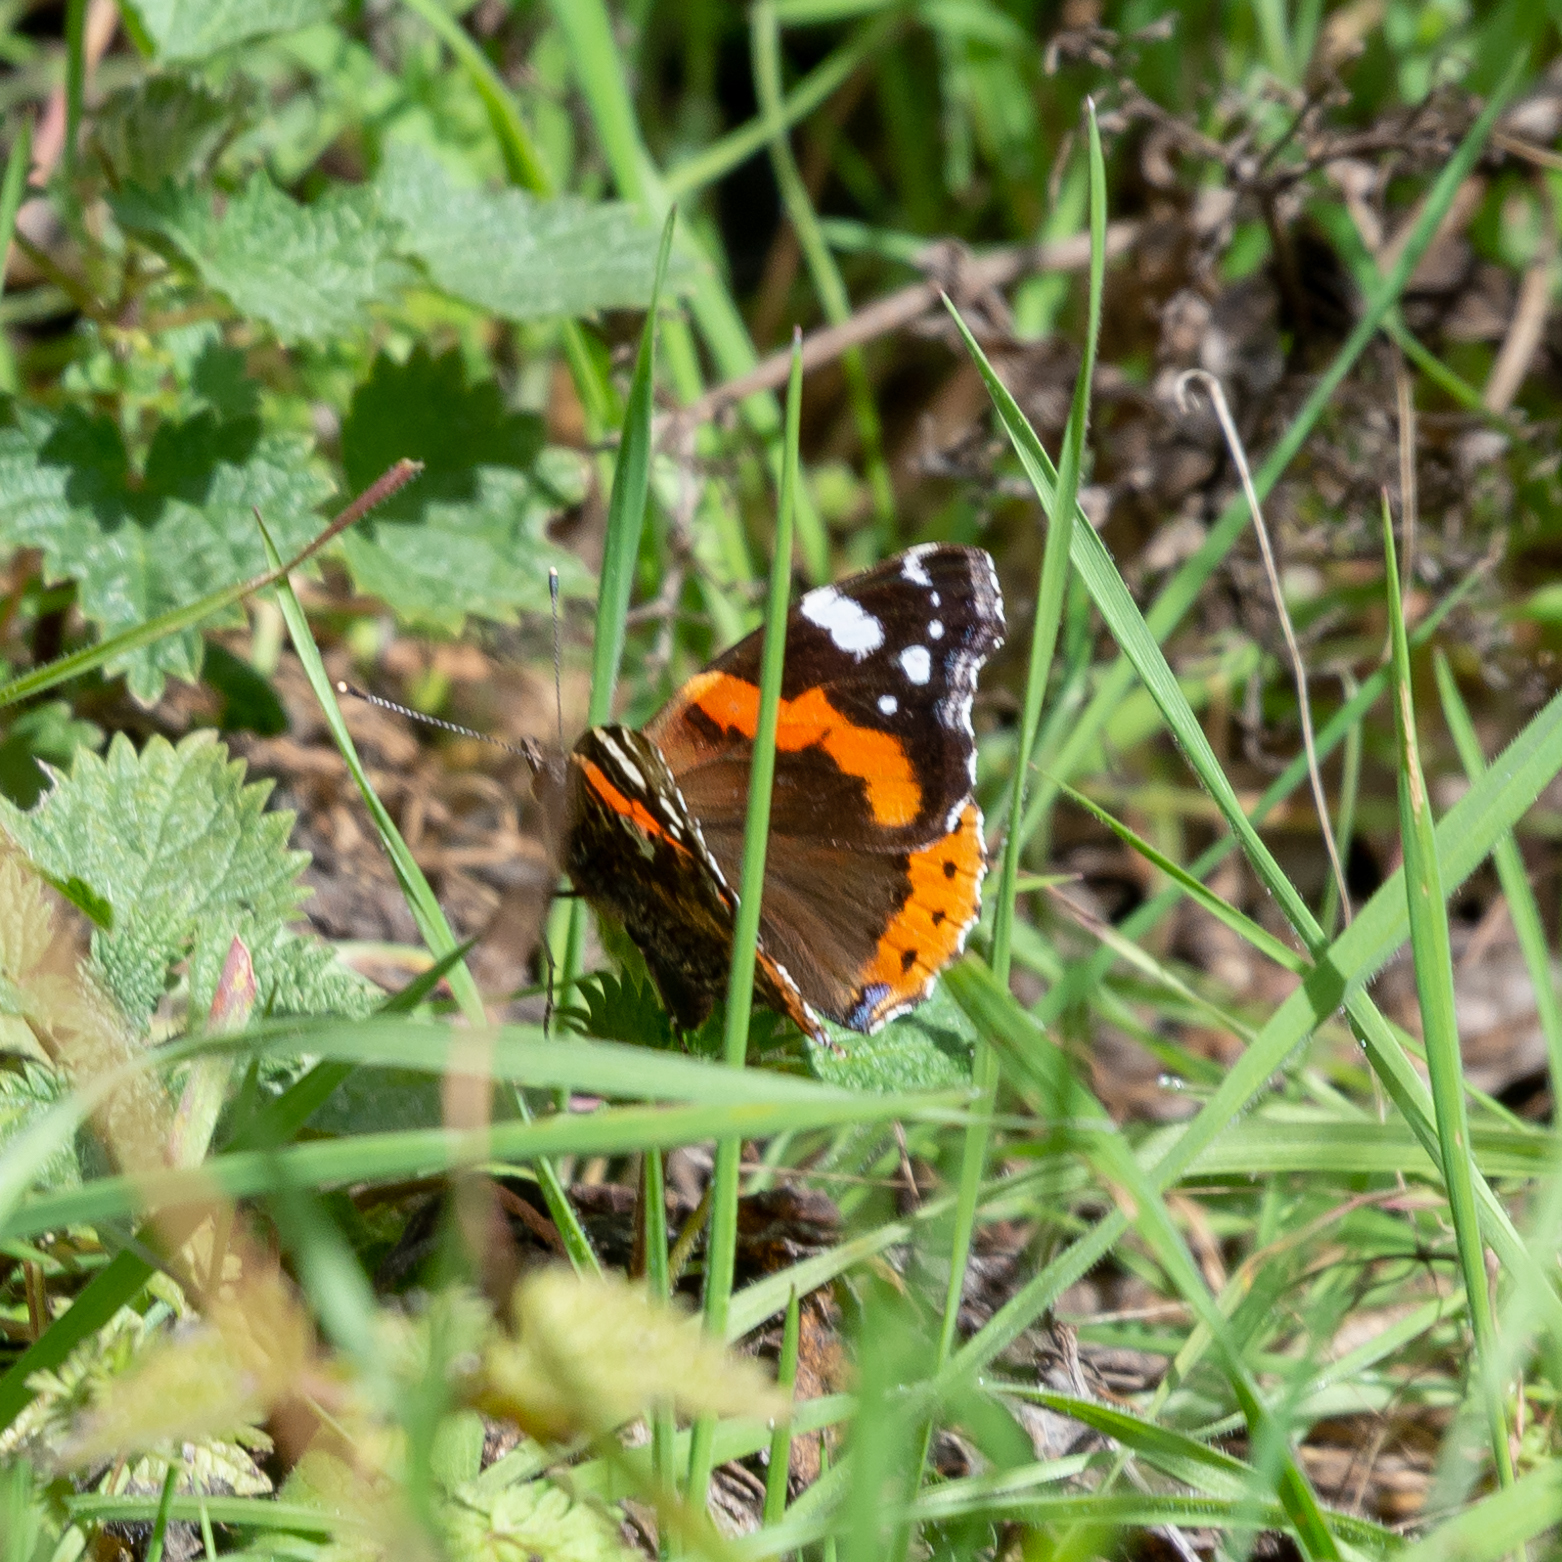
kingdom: Animalia
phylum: Arthropoda
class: Insecta
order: Lepidoptera
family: Nymphalidae
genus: Vanessa
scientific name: Vanessa atalanta
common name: Red admiral
